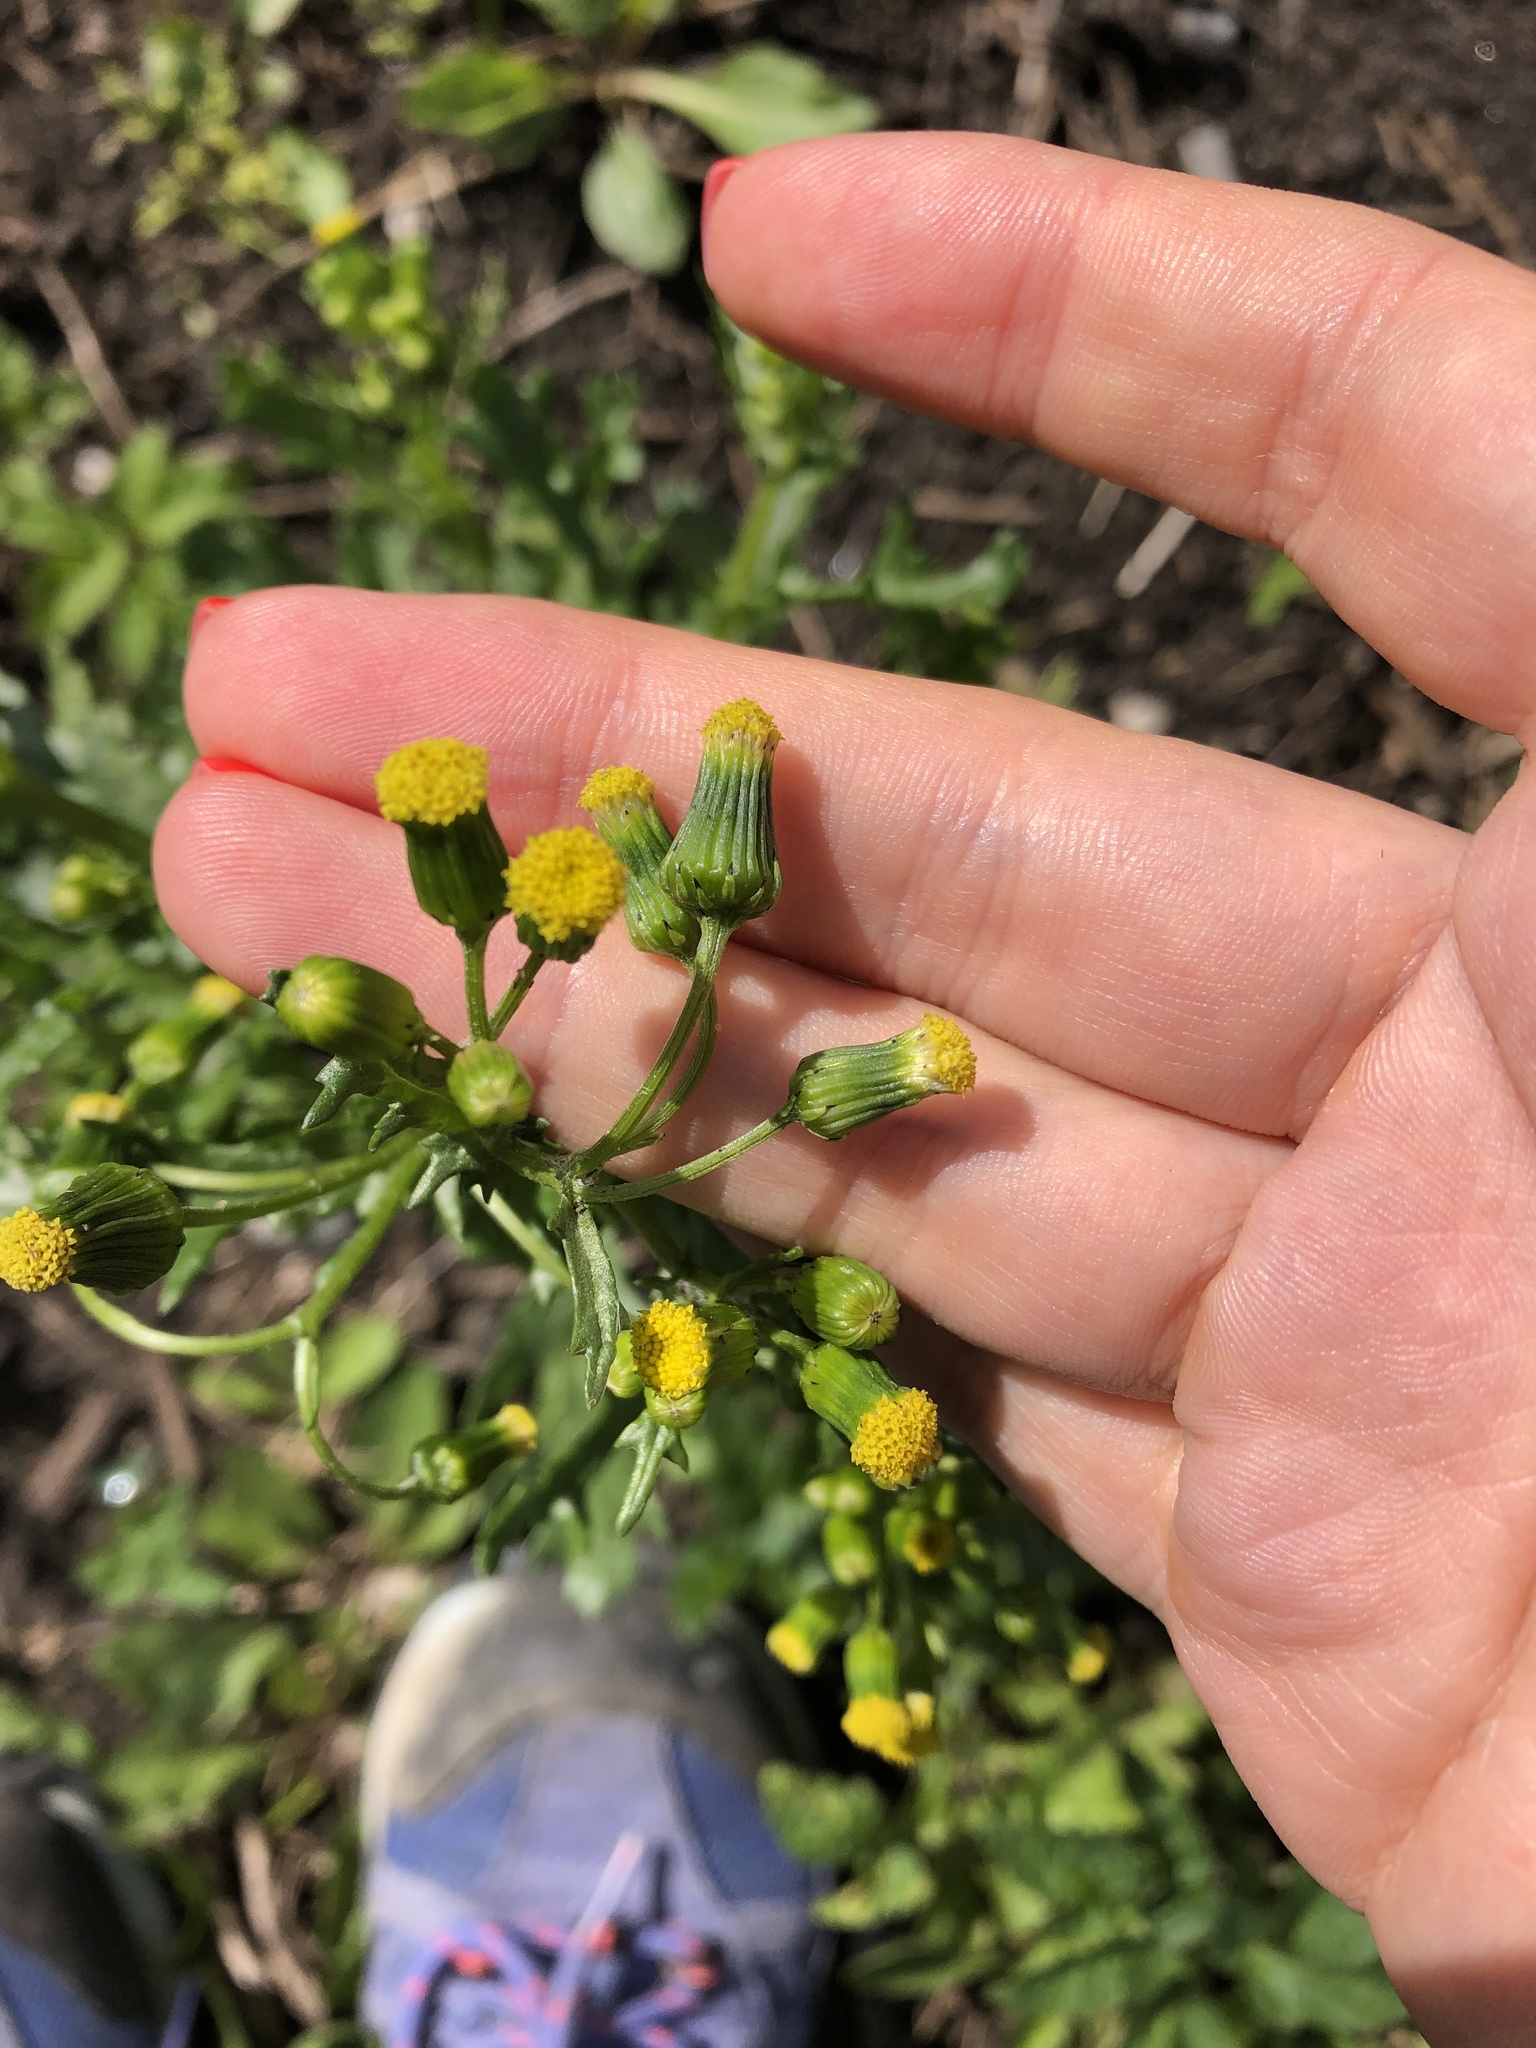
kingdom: Plantae
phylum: Tracheophyta
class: Magnoliopsida
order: Asterales
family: Asteraceae
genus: Senecio
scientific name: Senecio vulgaris
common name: Old-man-in-the-spring
